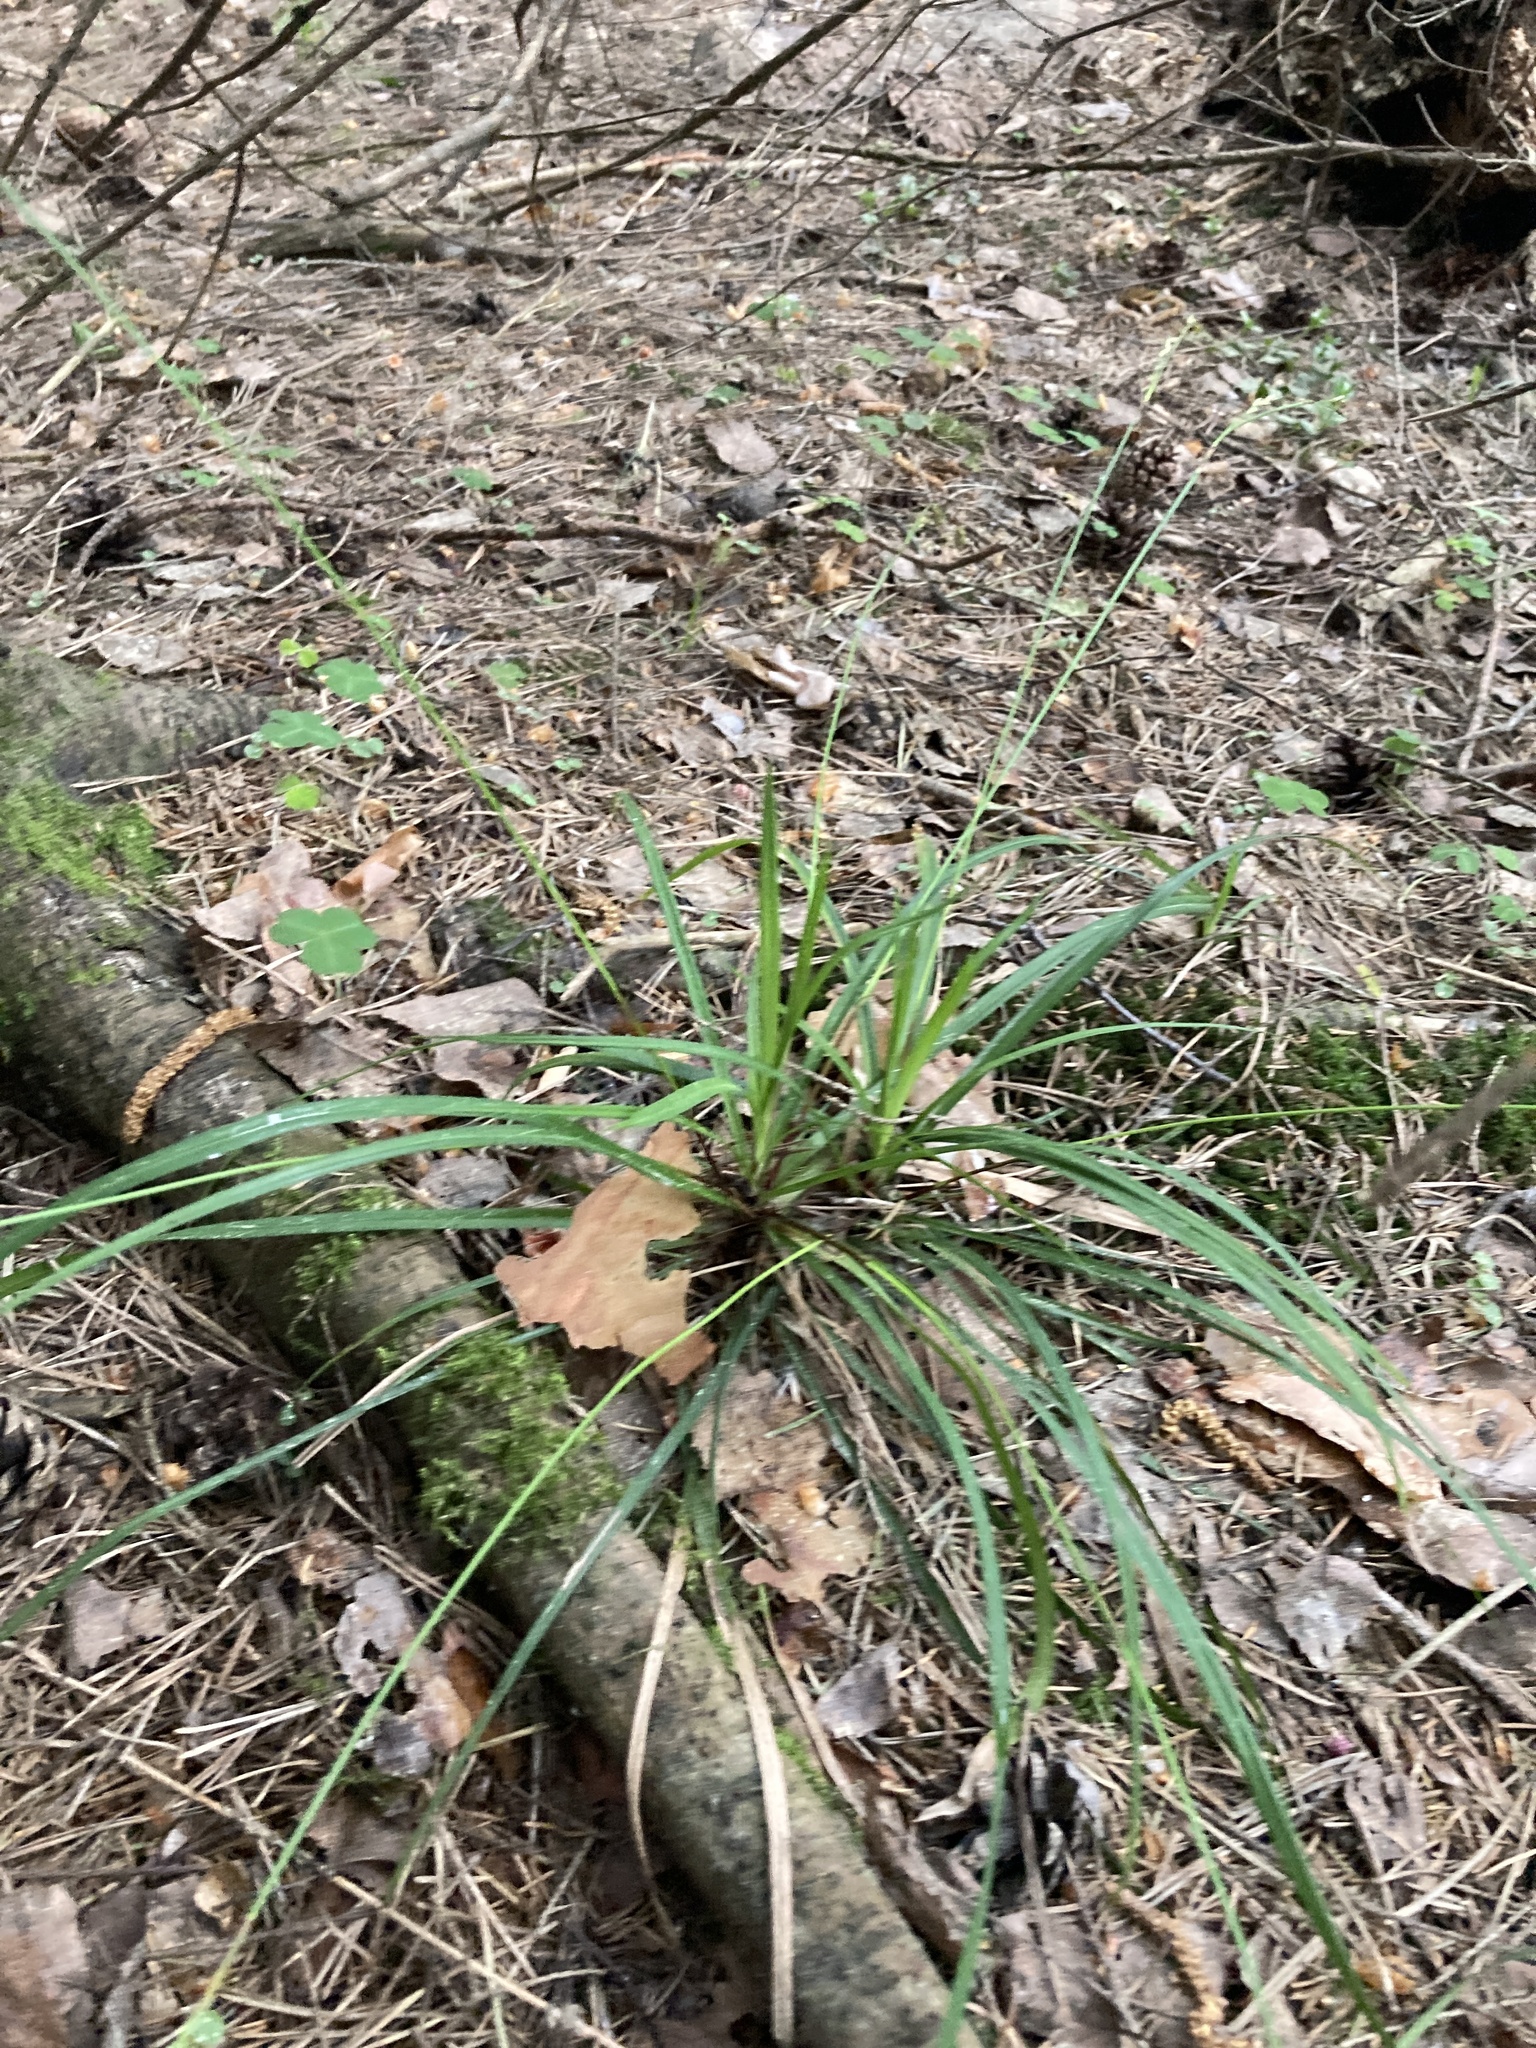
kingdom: Plantae
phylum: Tracheophyta
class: Liliopsida
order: Poales
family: Cyperaceae
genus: Carex
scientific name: Carex digitata
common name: Fingered sedge
